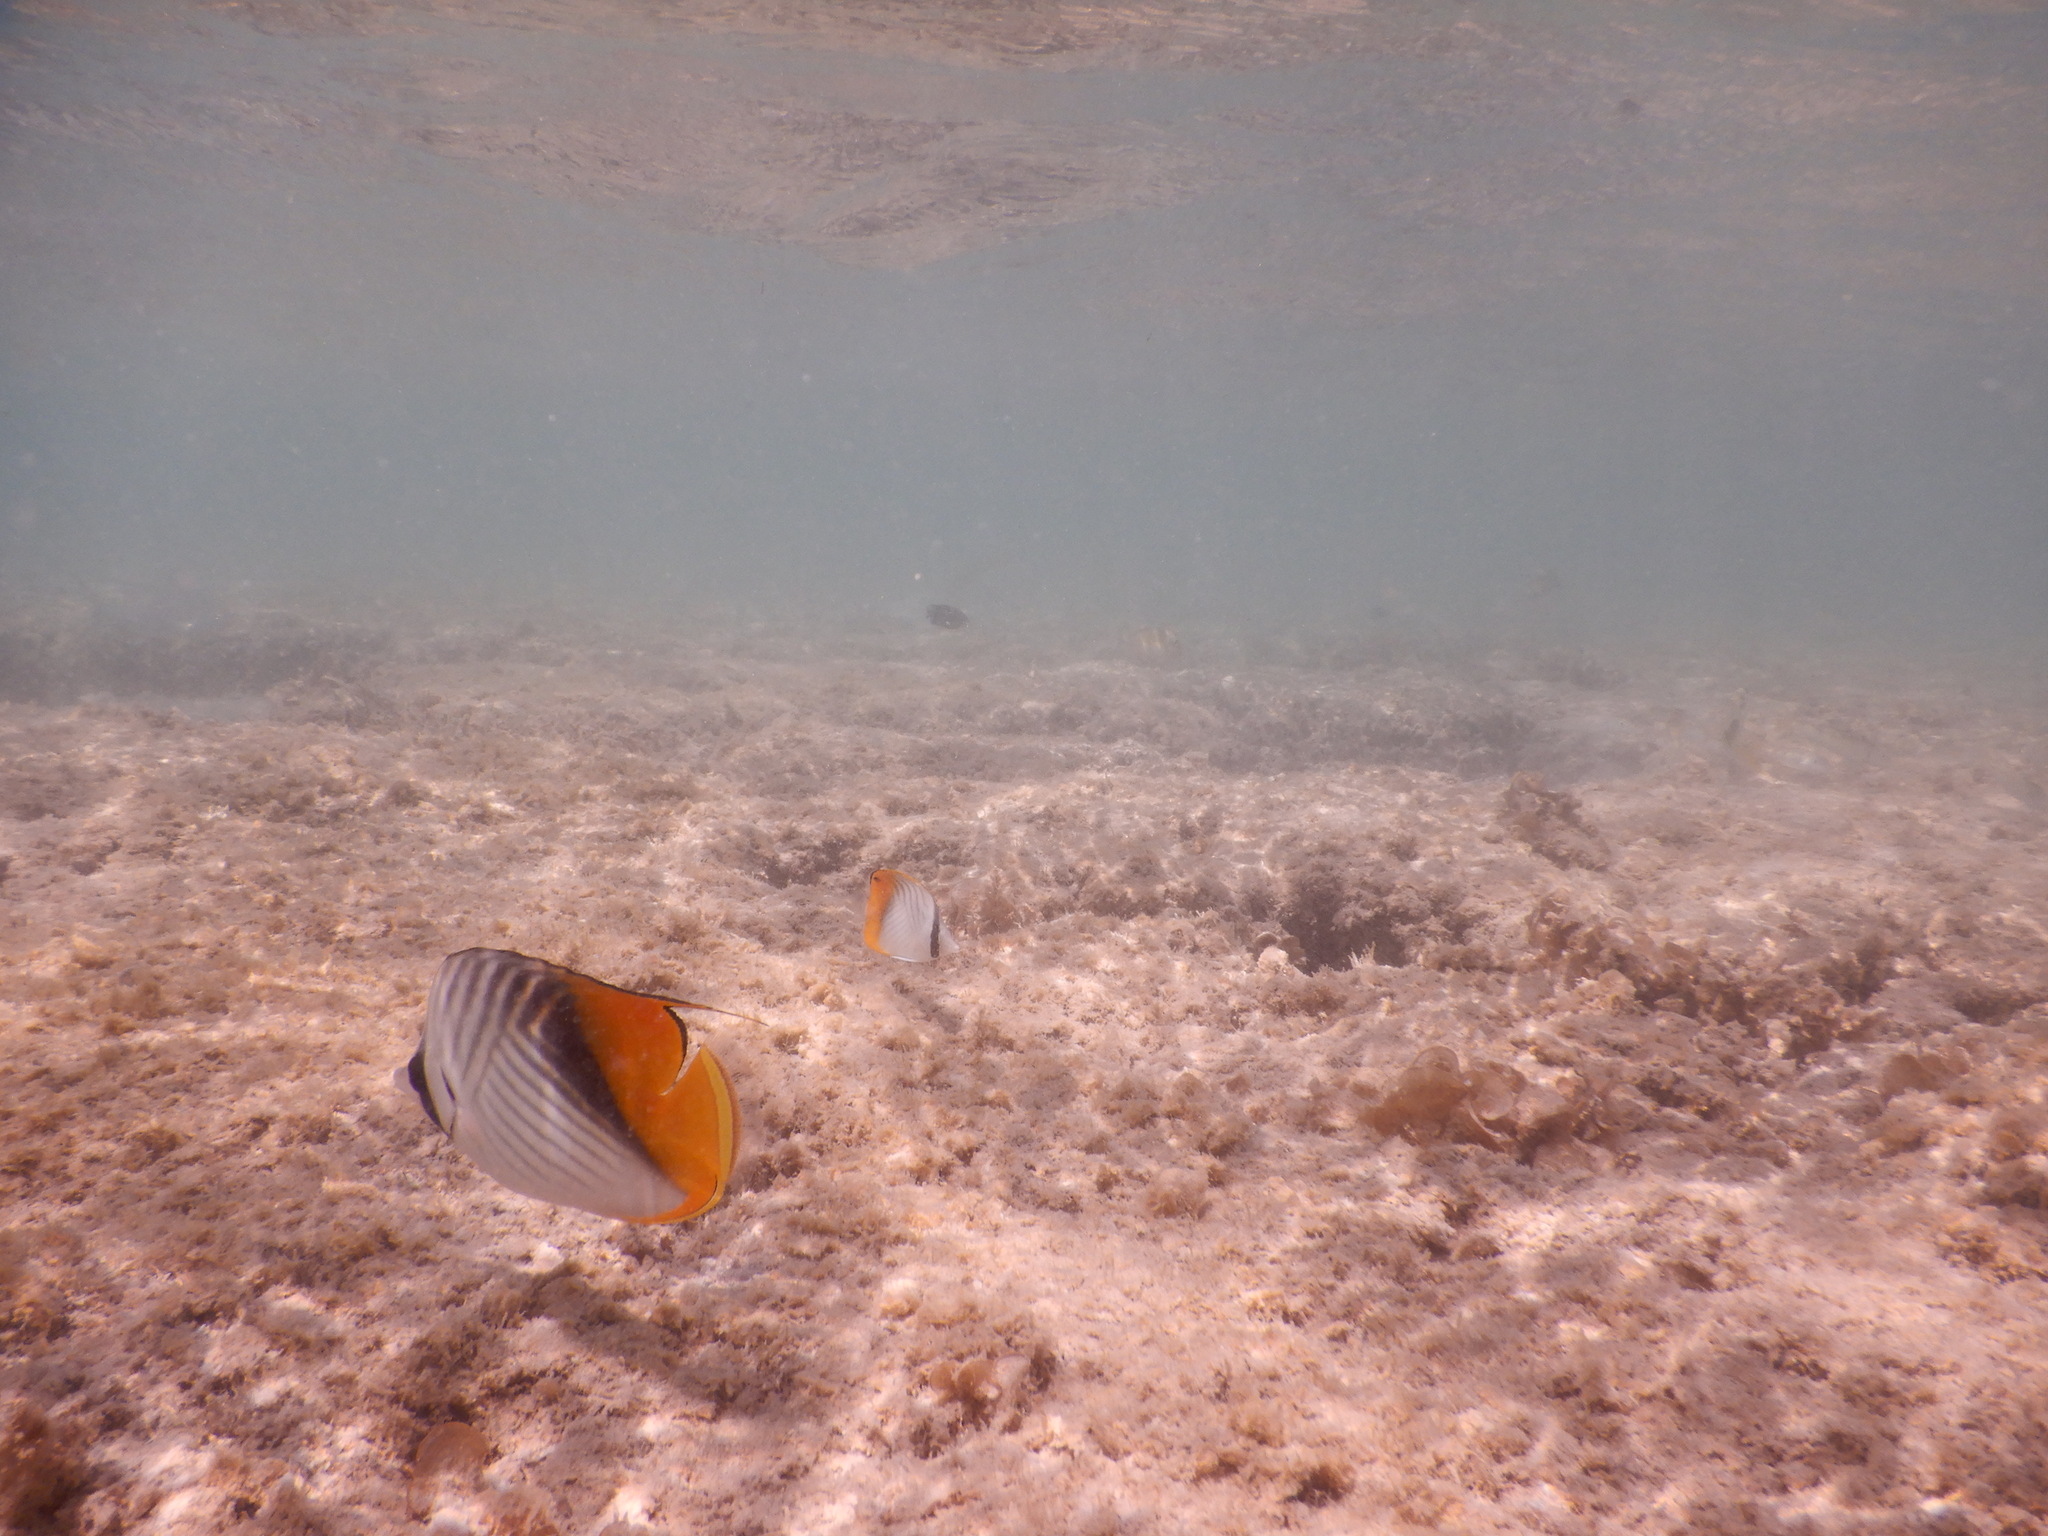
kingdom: Animalia
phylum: Chordata
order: Perciformes
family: Chaetodontidae
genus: Chaetodon
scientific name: Chaetodon auriga
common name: Threadfin butterflyfish
